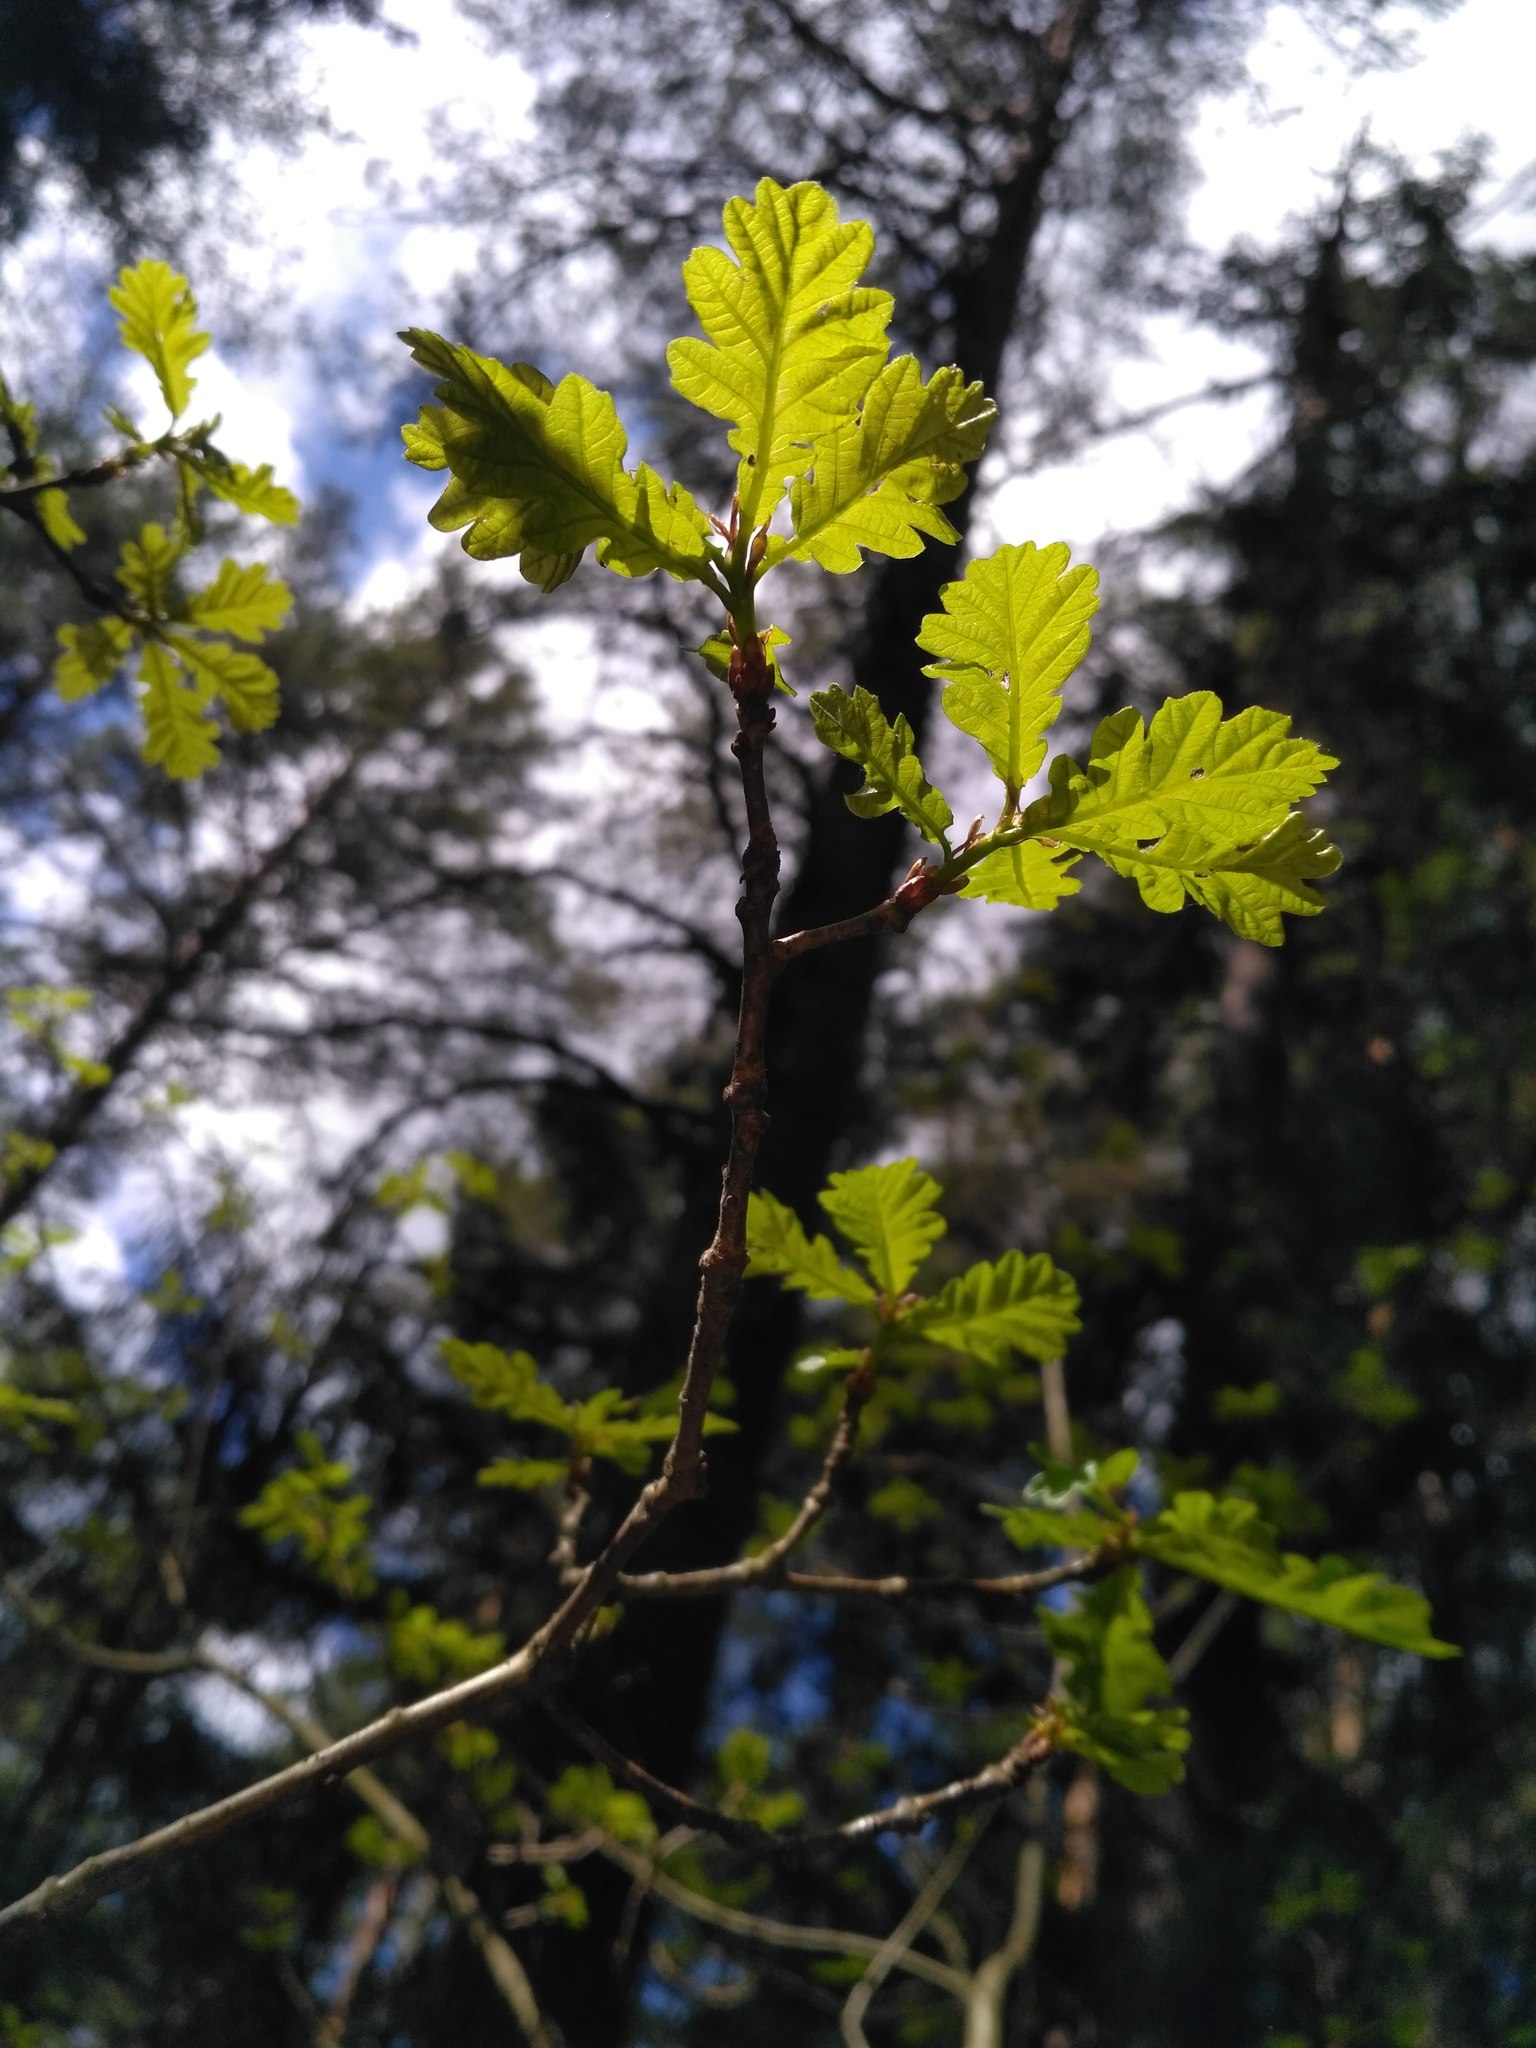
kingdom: Plantae
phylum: Tracheophyta
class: Magnoliopsida
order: Fagales
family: Fagaceae
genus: Quercus
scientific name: Quercus robur
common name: Pedunculate oak
